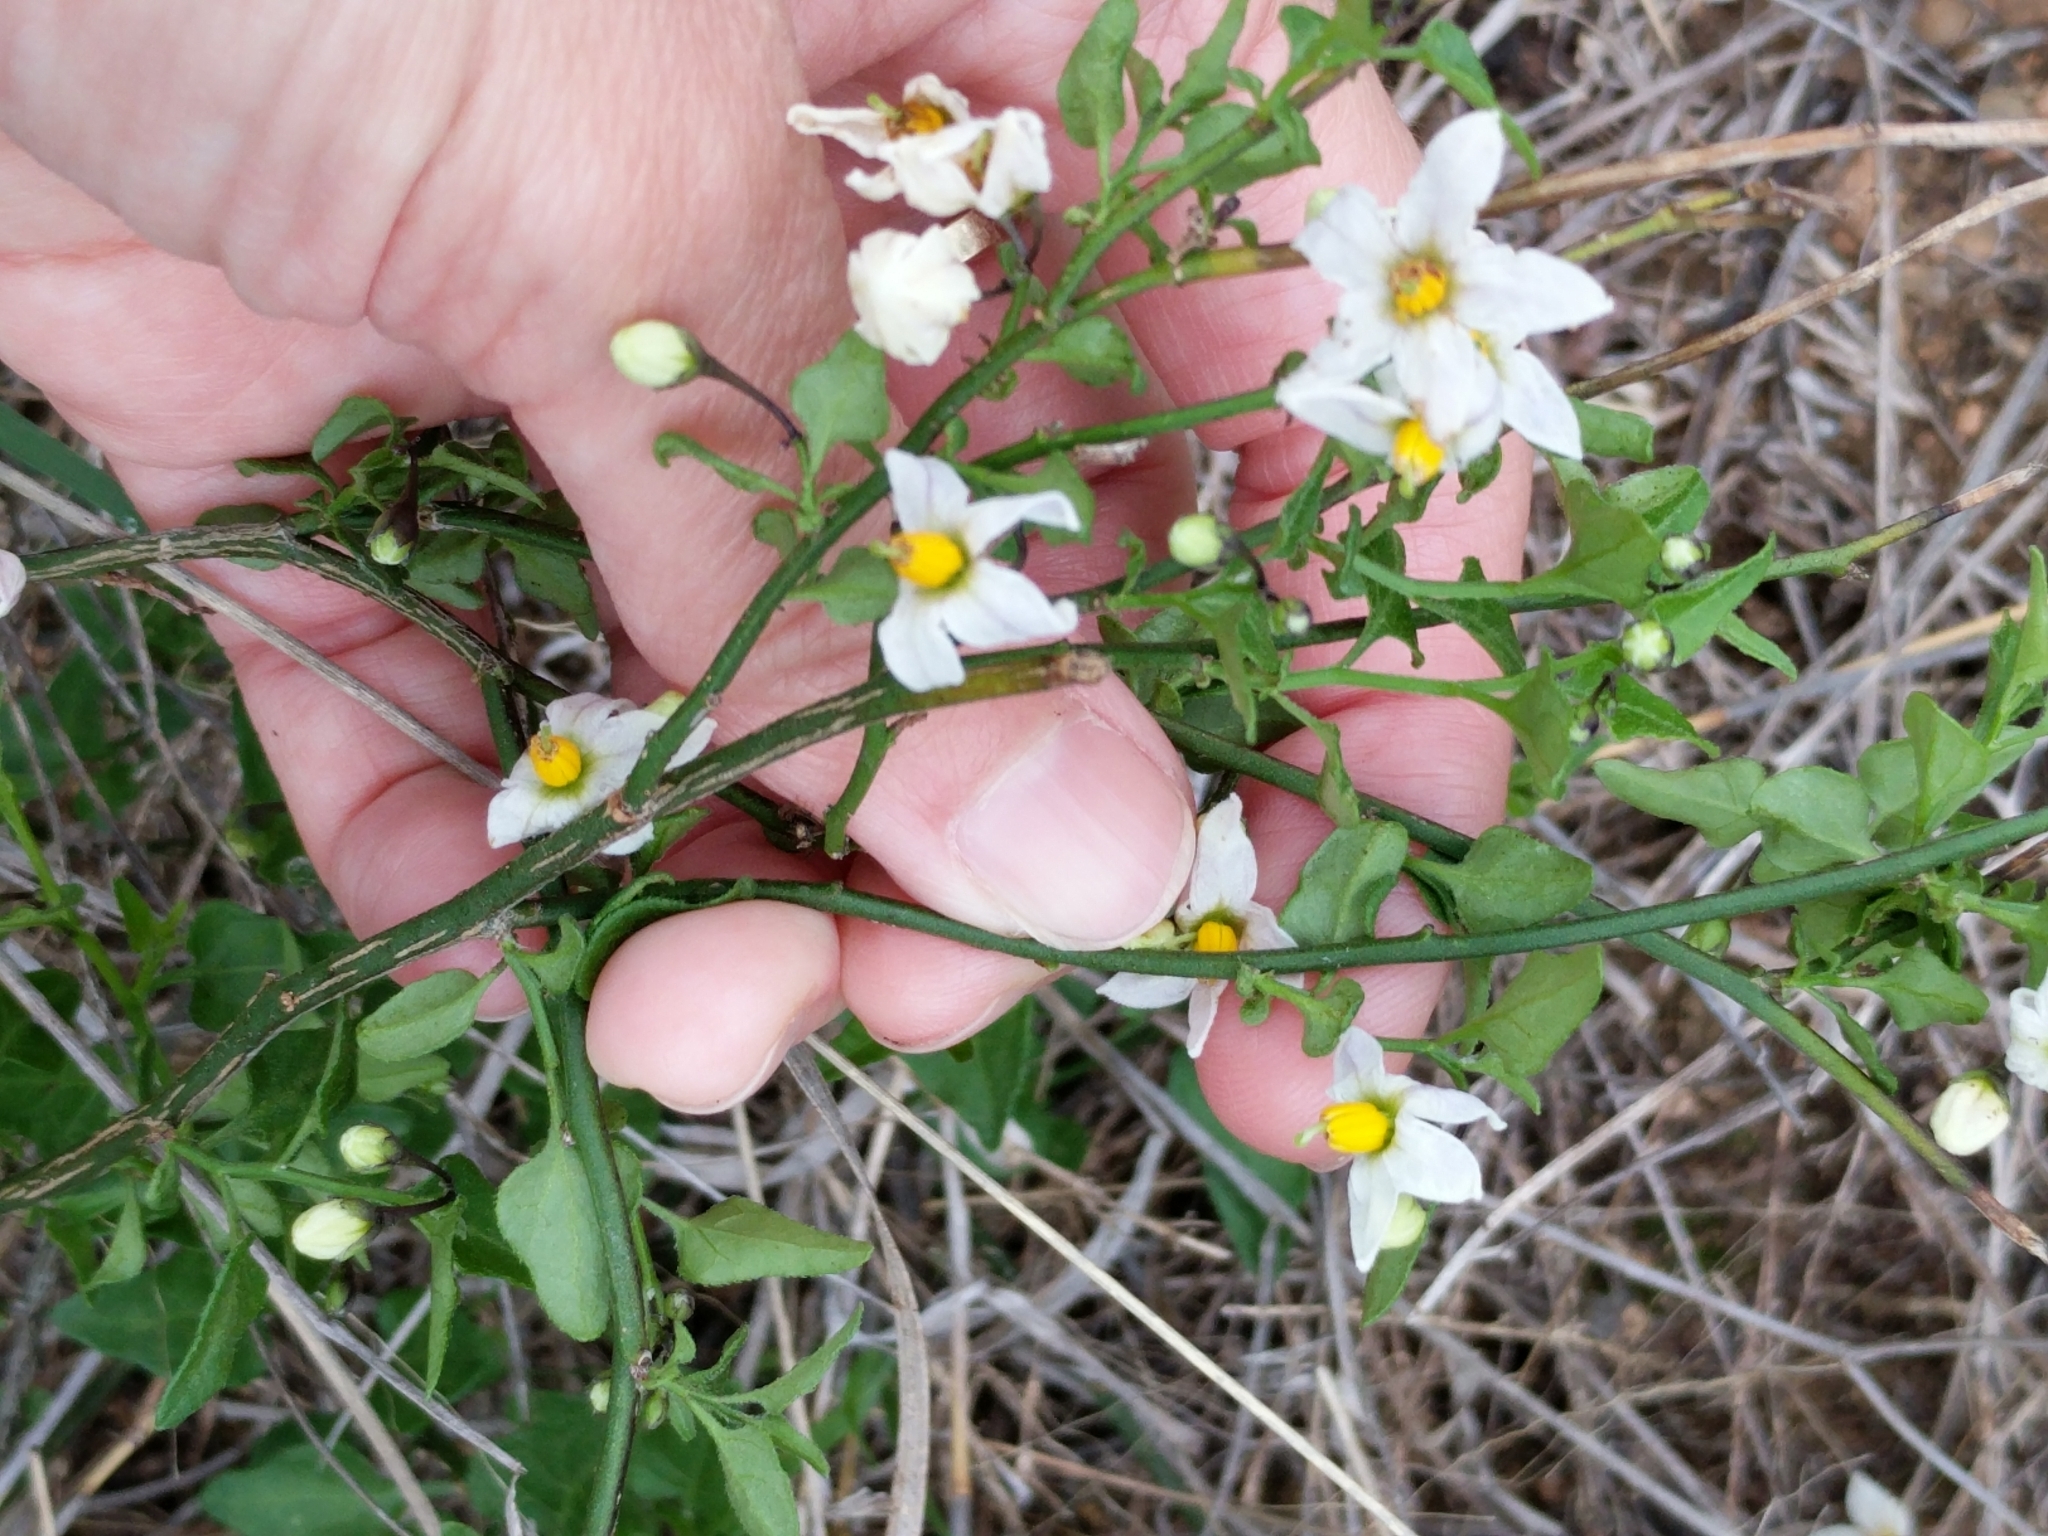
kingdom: Plantae
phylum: Tracheophyta
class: Magnoliopsida
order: Solanales
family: Solanaceae
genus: Solanum
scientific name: Solanum triquetrum
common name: Texas nightshade
